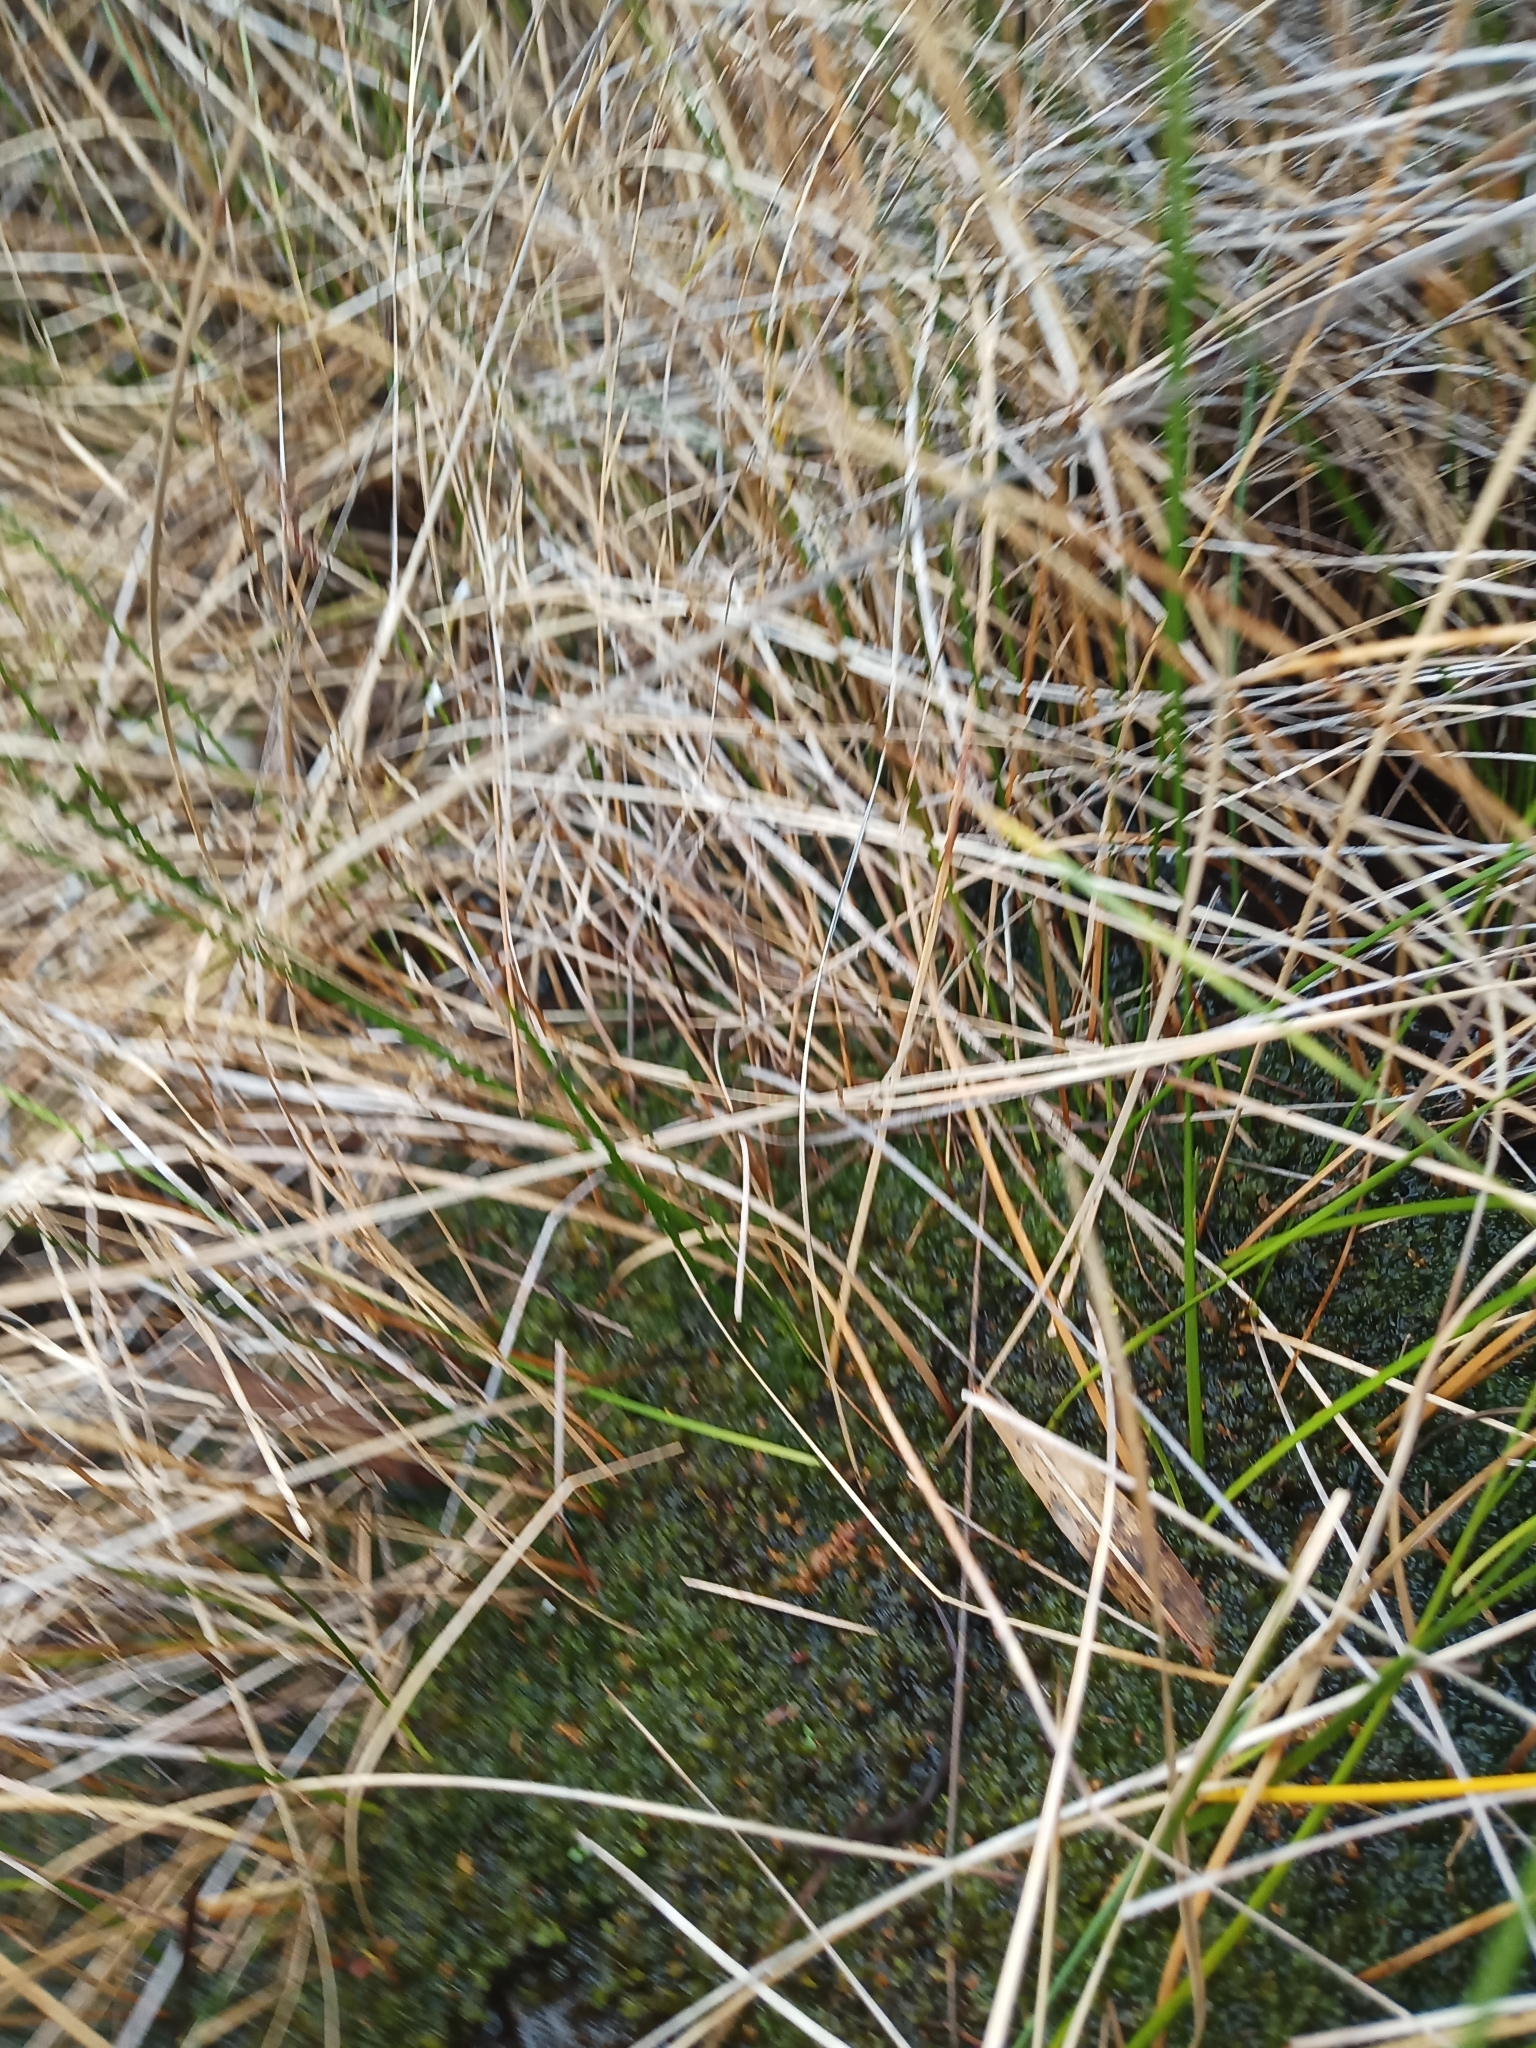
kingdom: Plantae
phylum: Marchantiophyta
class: Jungermanniopsida
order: Jungermanniales
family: Jackiellaceae
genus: Jackiella
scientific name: Jackiella curvata
